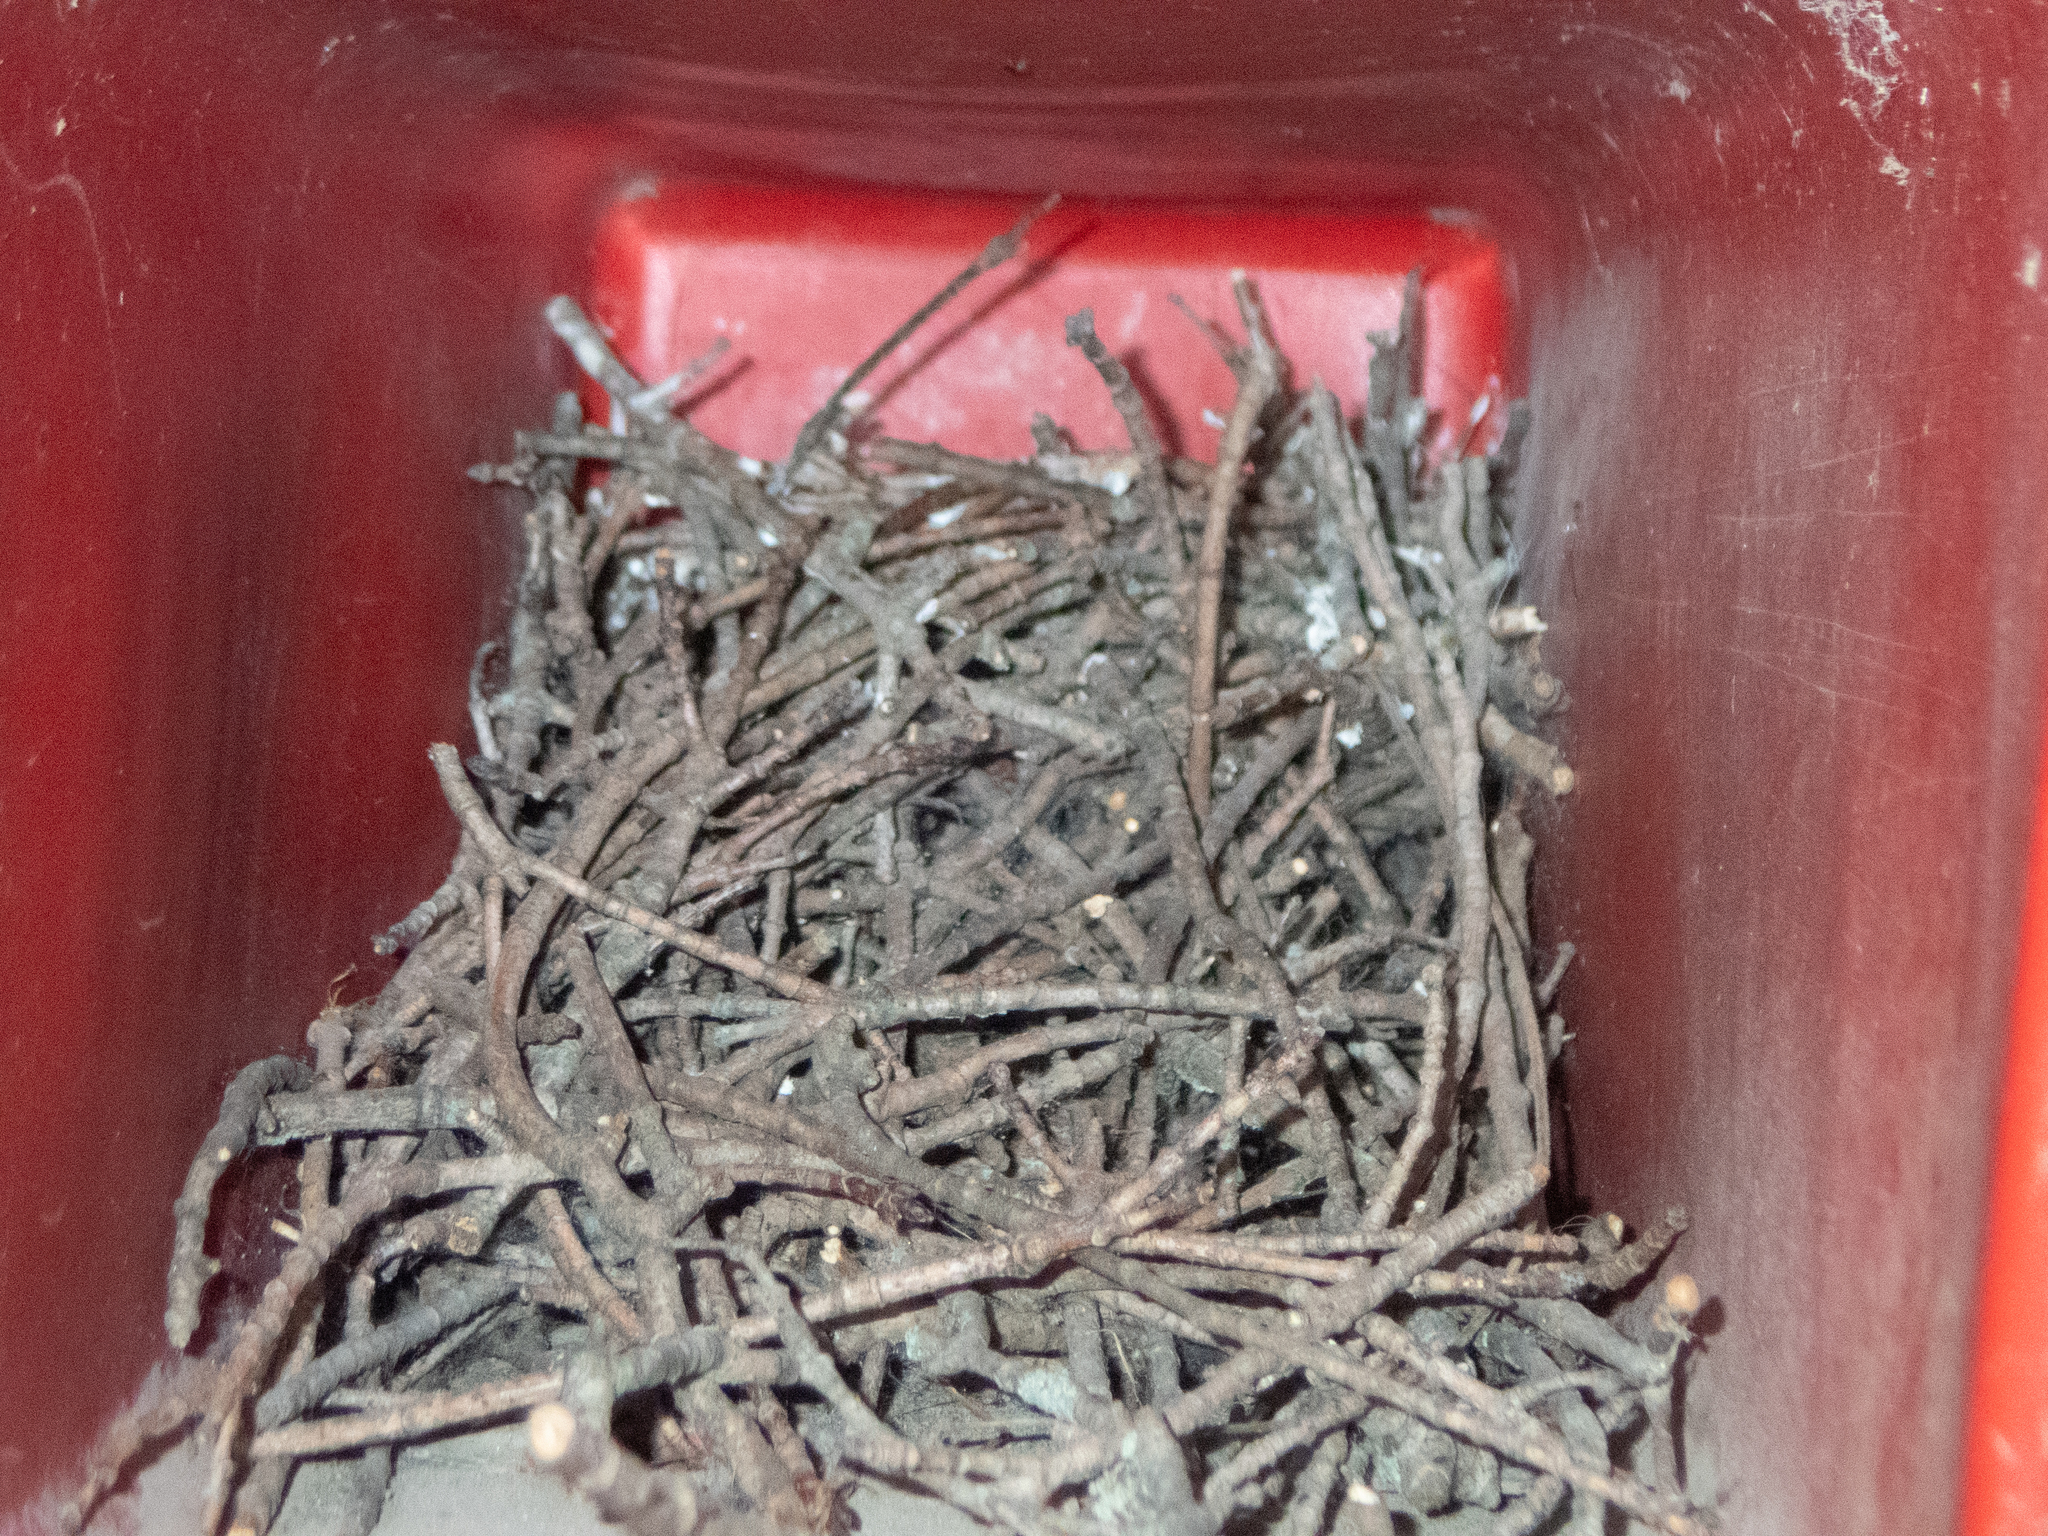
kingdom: Animalia
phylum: Chordata
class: Aves
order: Passeriformes
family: Troglodytidae
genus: Troglodytes
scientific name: Troglodytes aedon
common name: House wren
